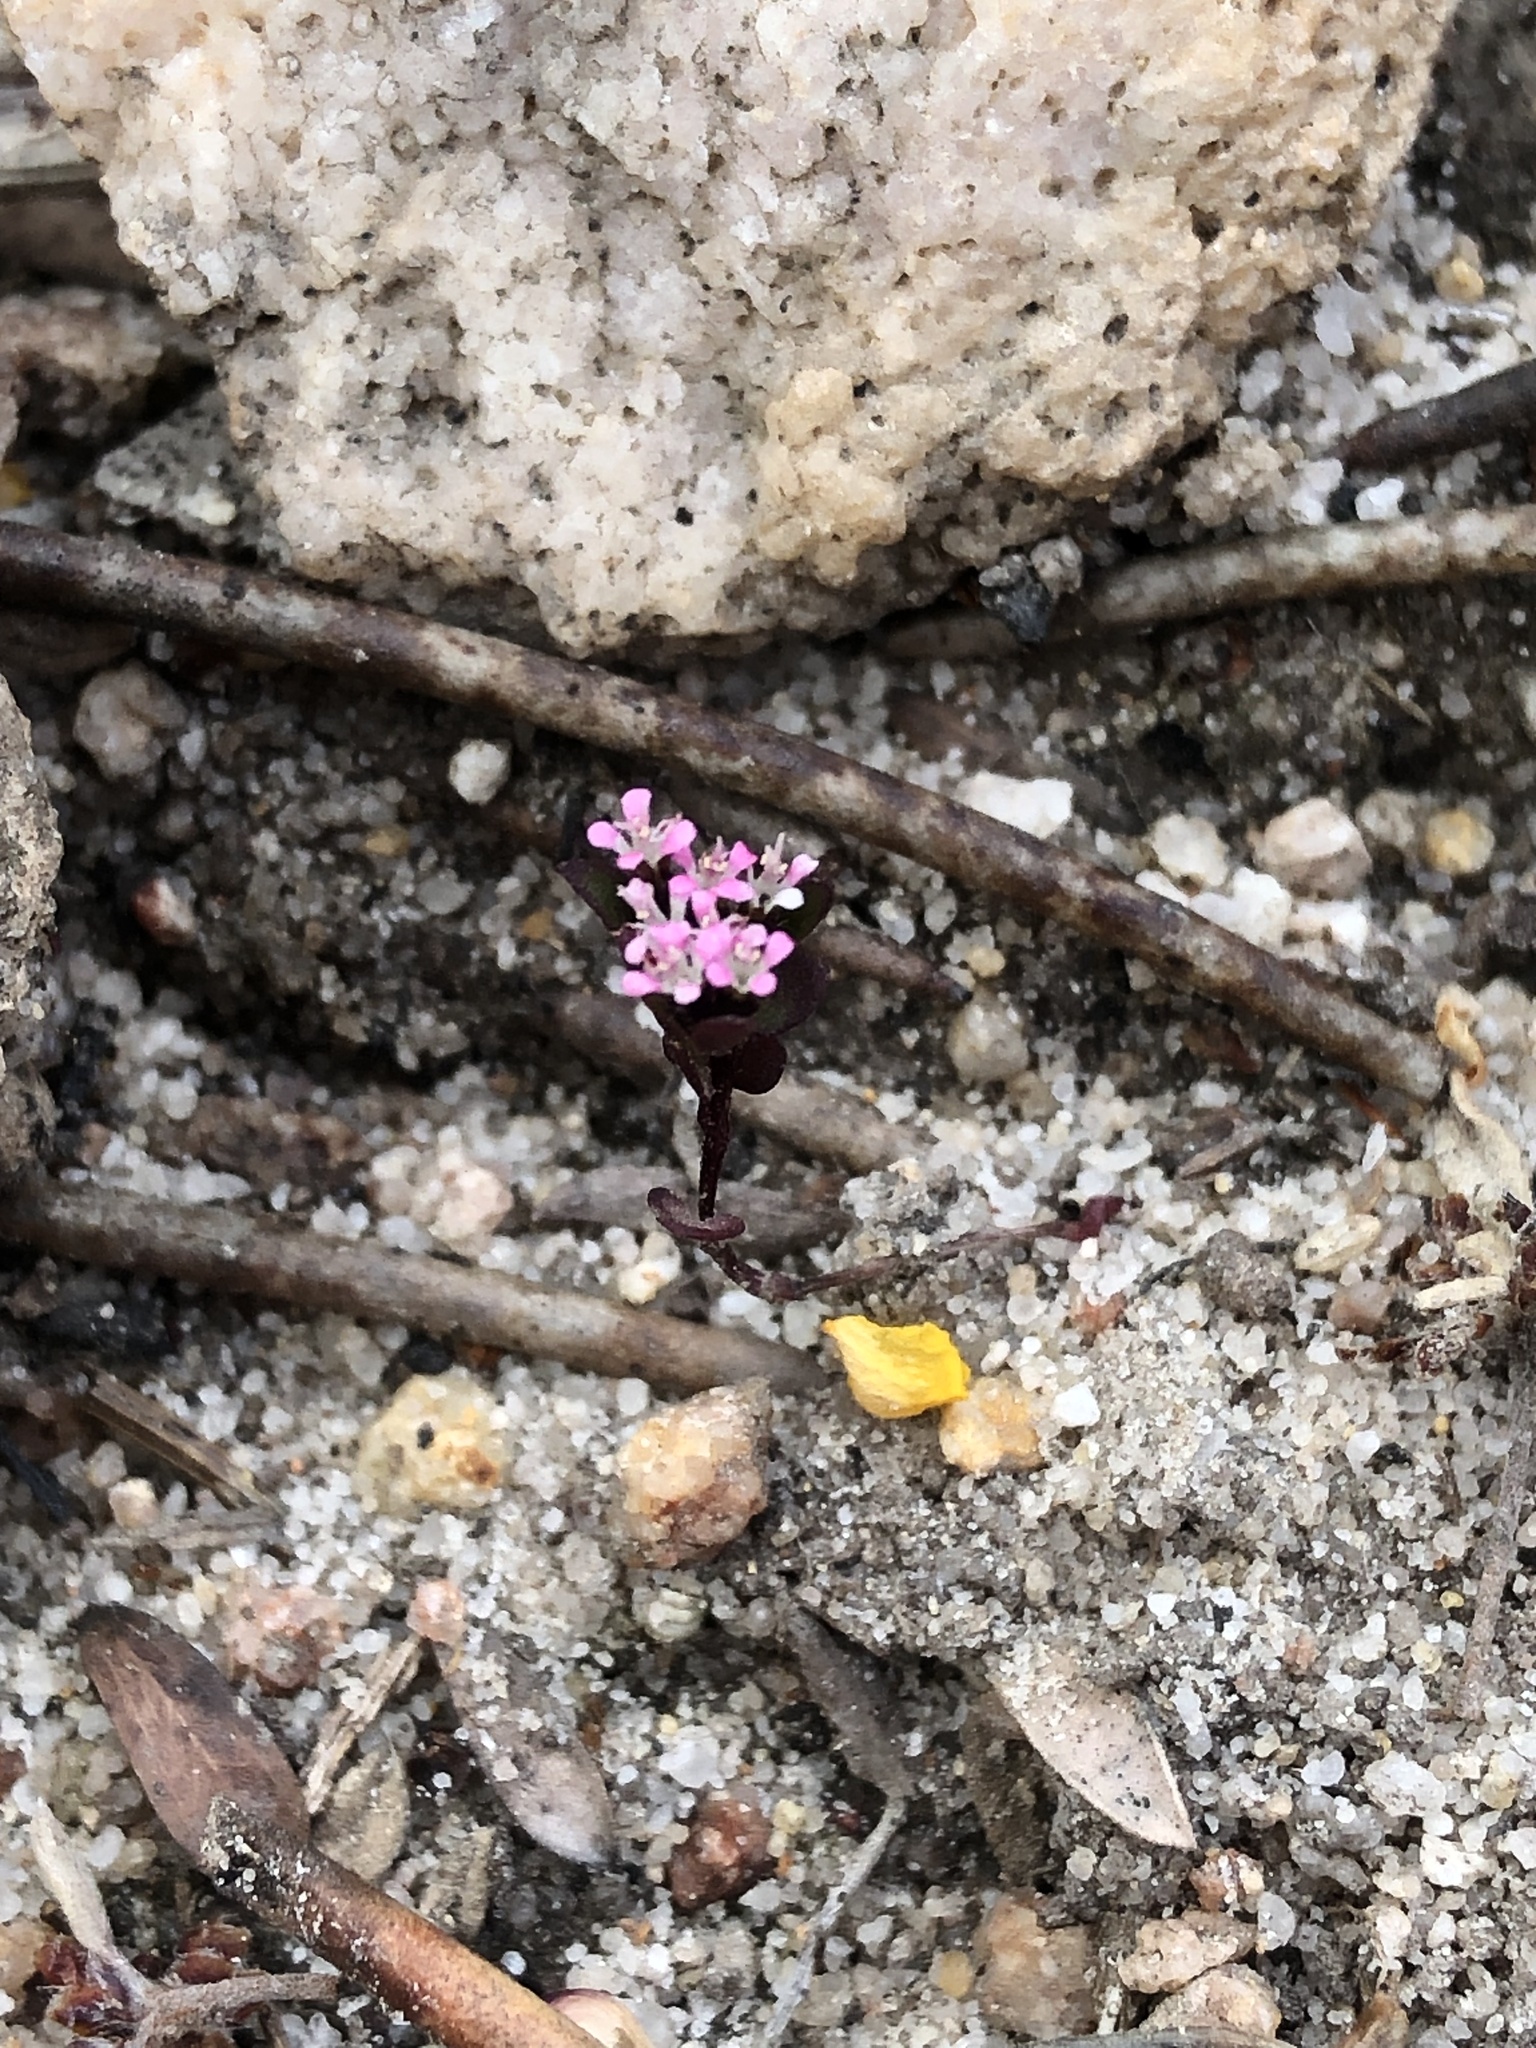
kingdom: Plantae
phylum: Tracheophyta
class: Magnoliopsida
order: Asterales
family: Stylidiaceae
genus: Levenhookia
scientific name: Levenhookia pusilla
